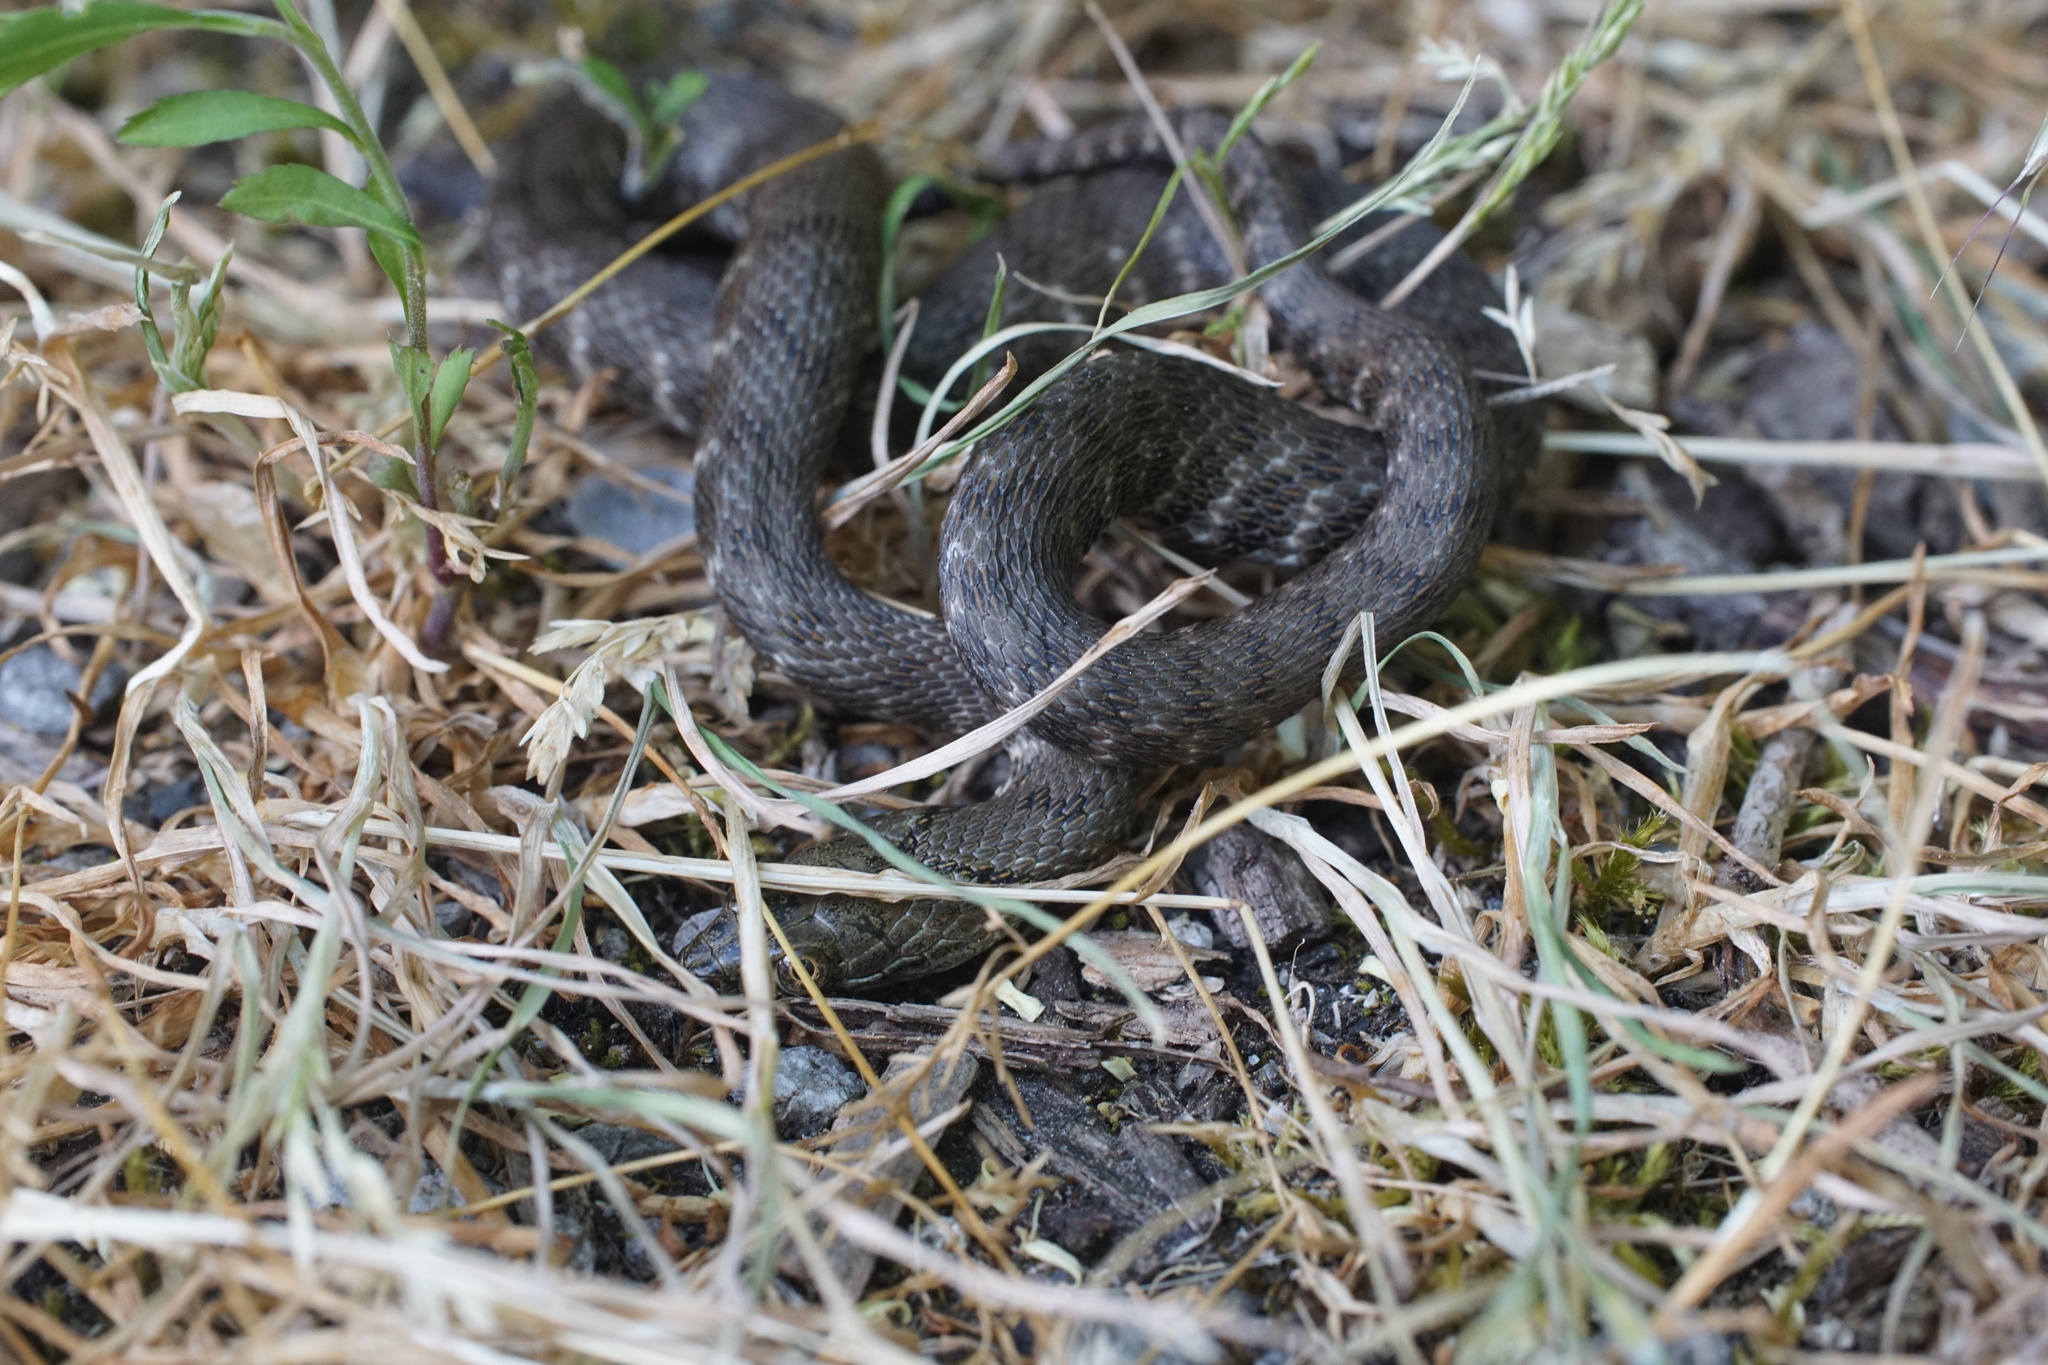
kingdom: Animalia
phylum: Chordata
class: Squamata
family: Colubridae
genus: Natrix
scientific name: Natrix tessellata
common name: Dice snake
